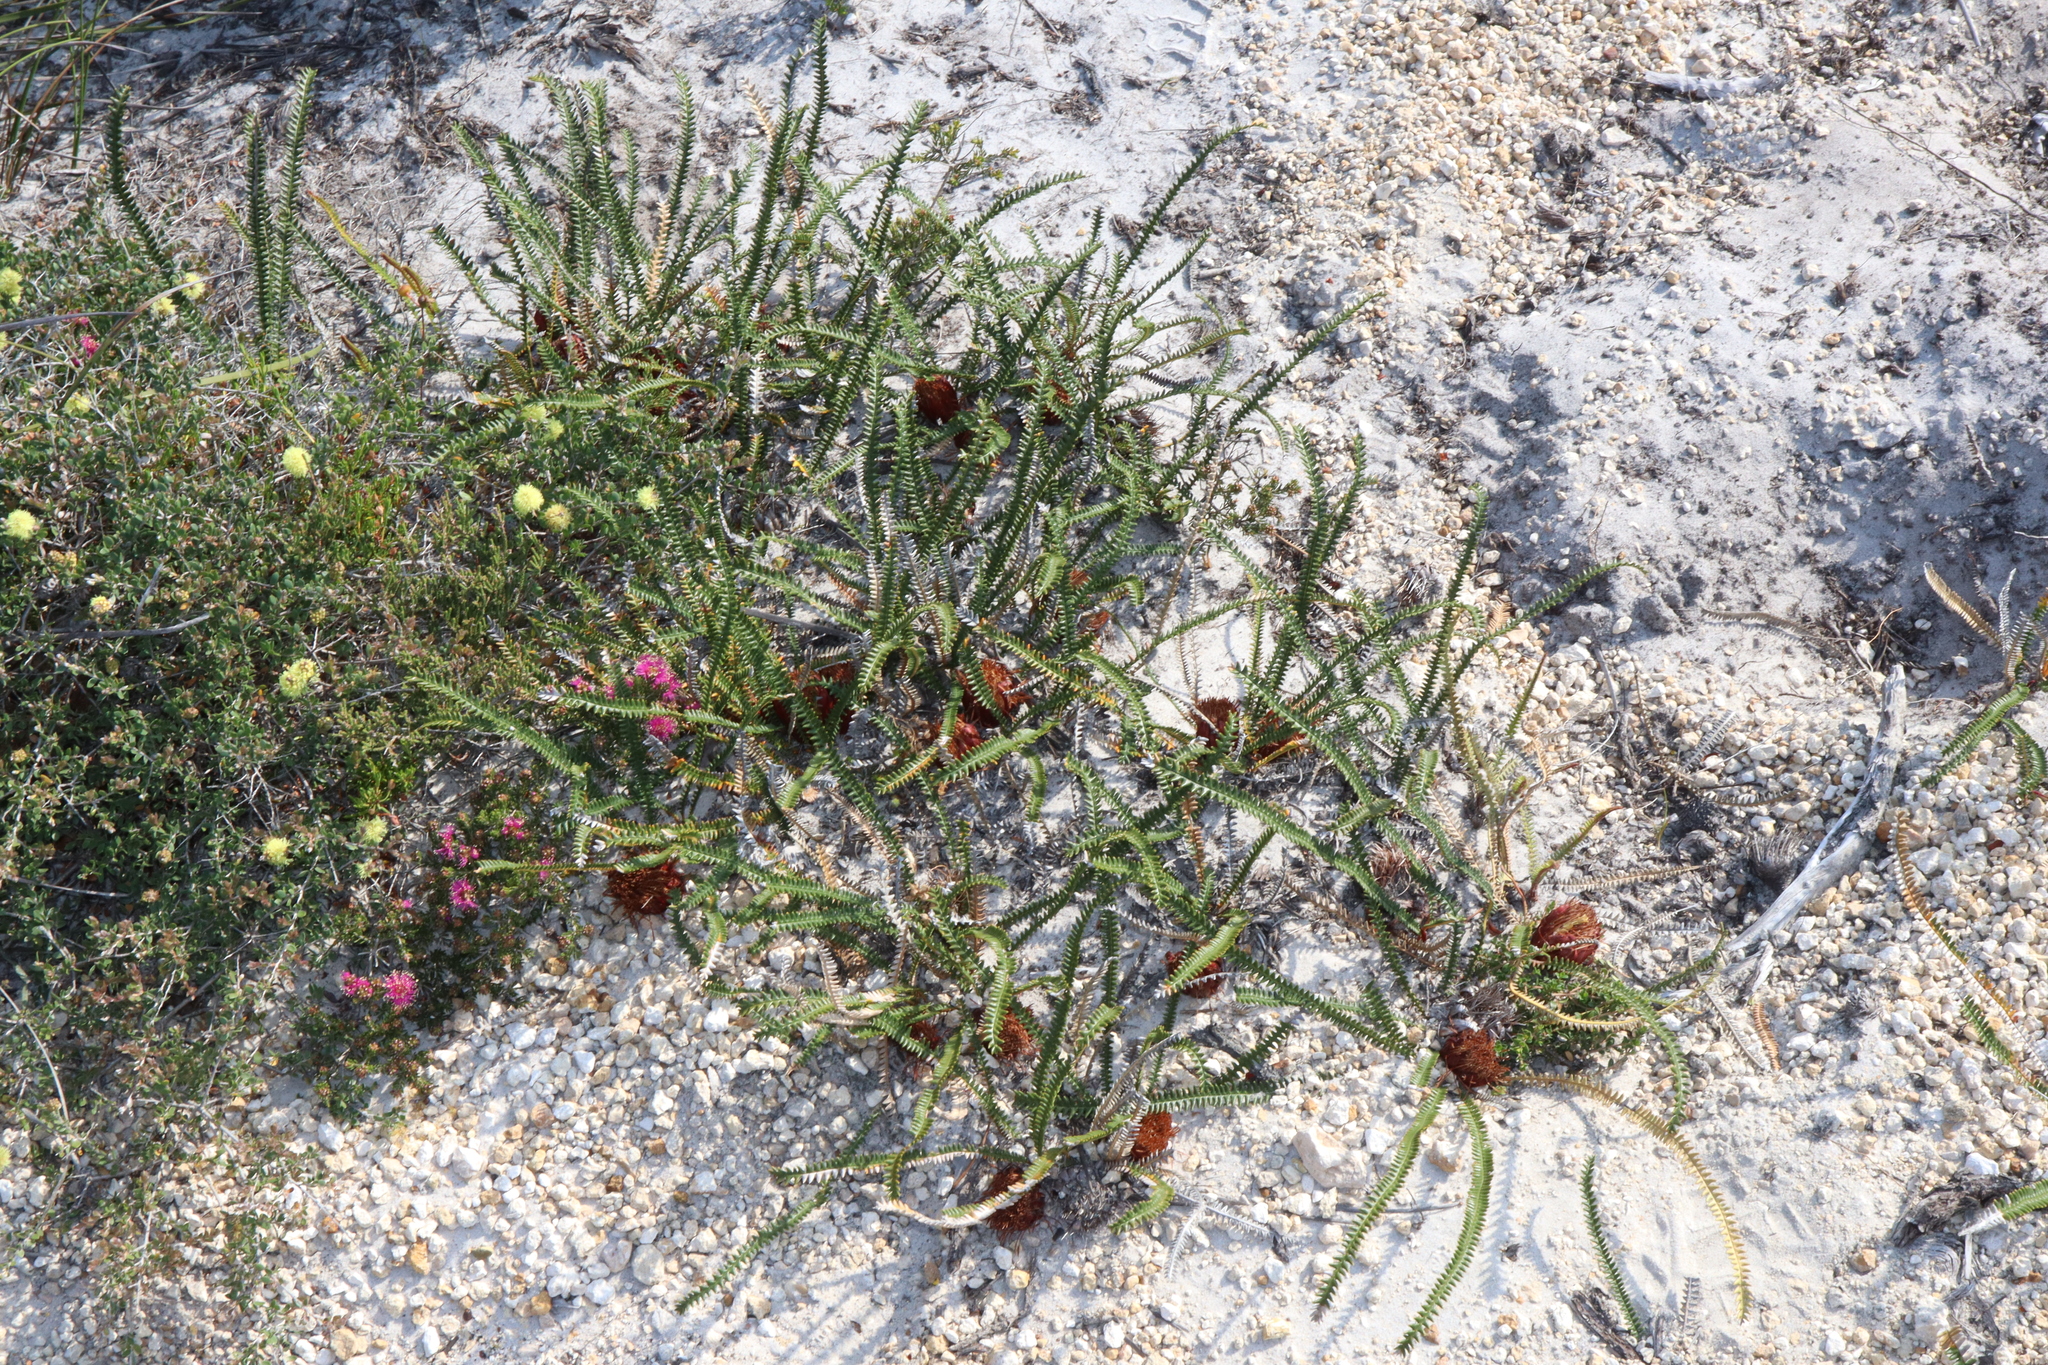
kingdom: Plantae
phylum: Tracheophyta
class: Magnoliopsida
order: Proteales
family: Proteaceae
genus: Banksia
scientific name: Banksia obtusa
